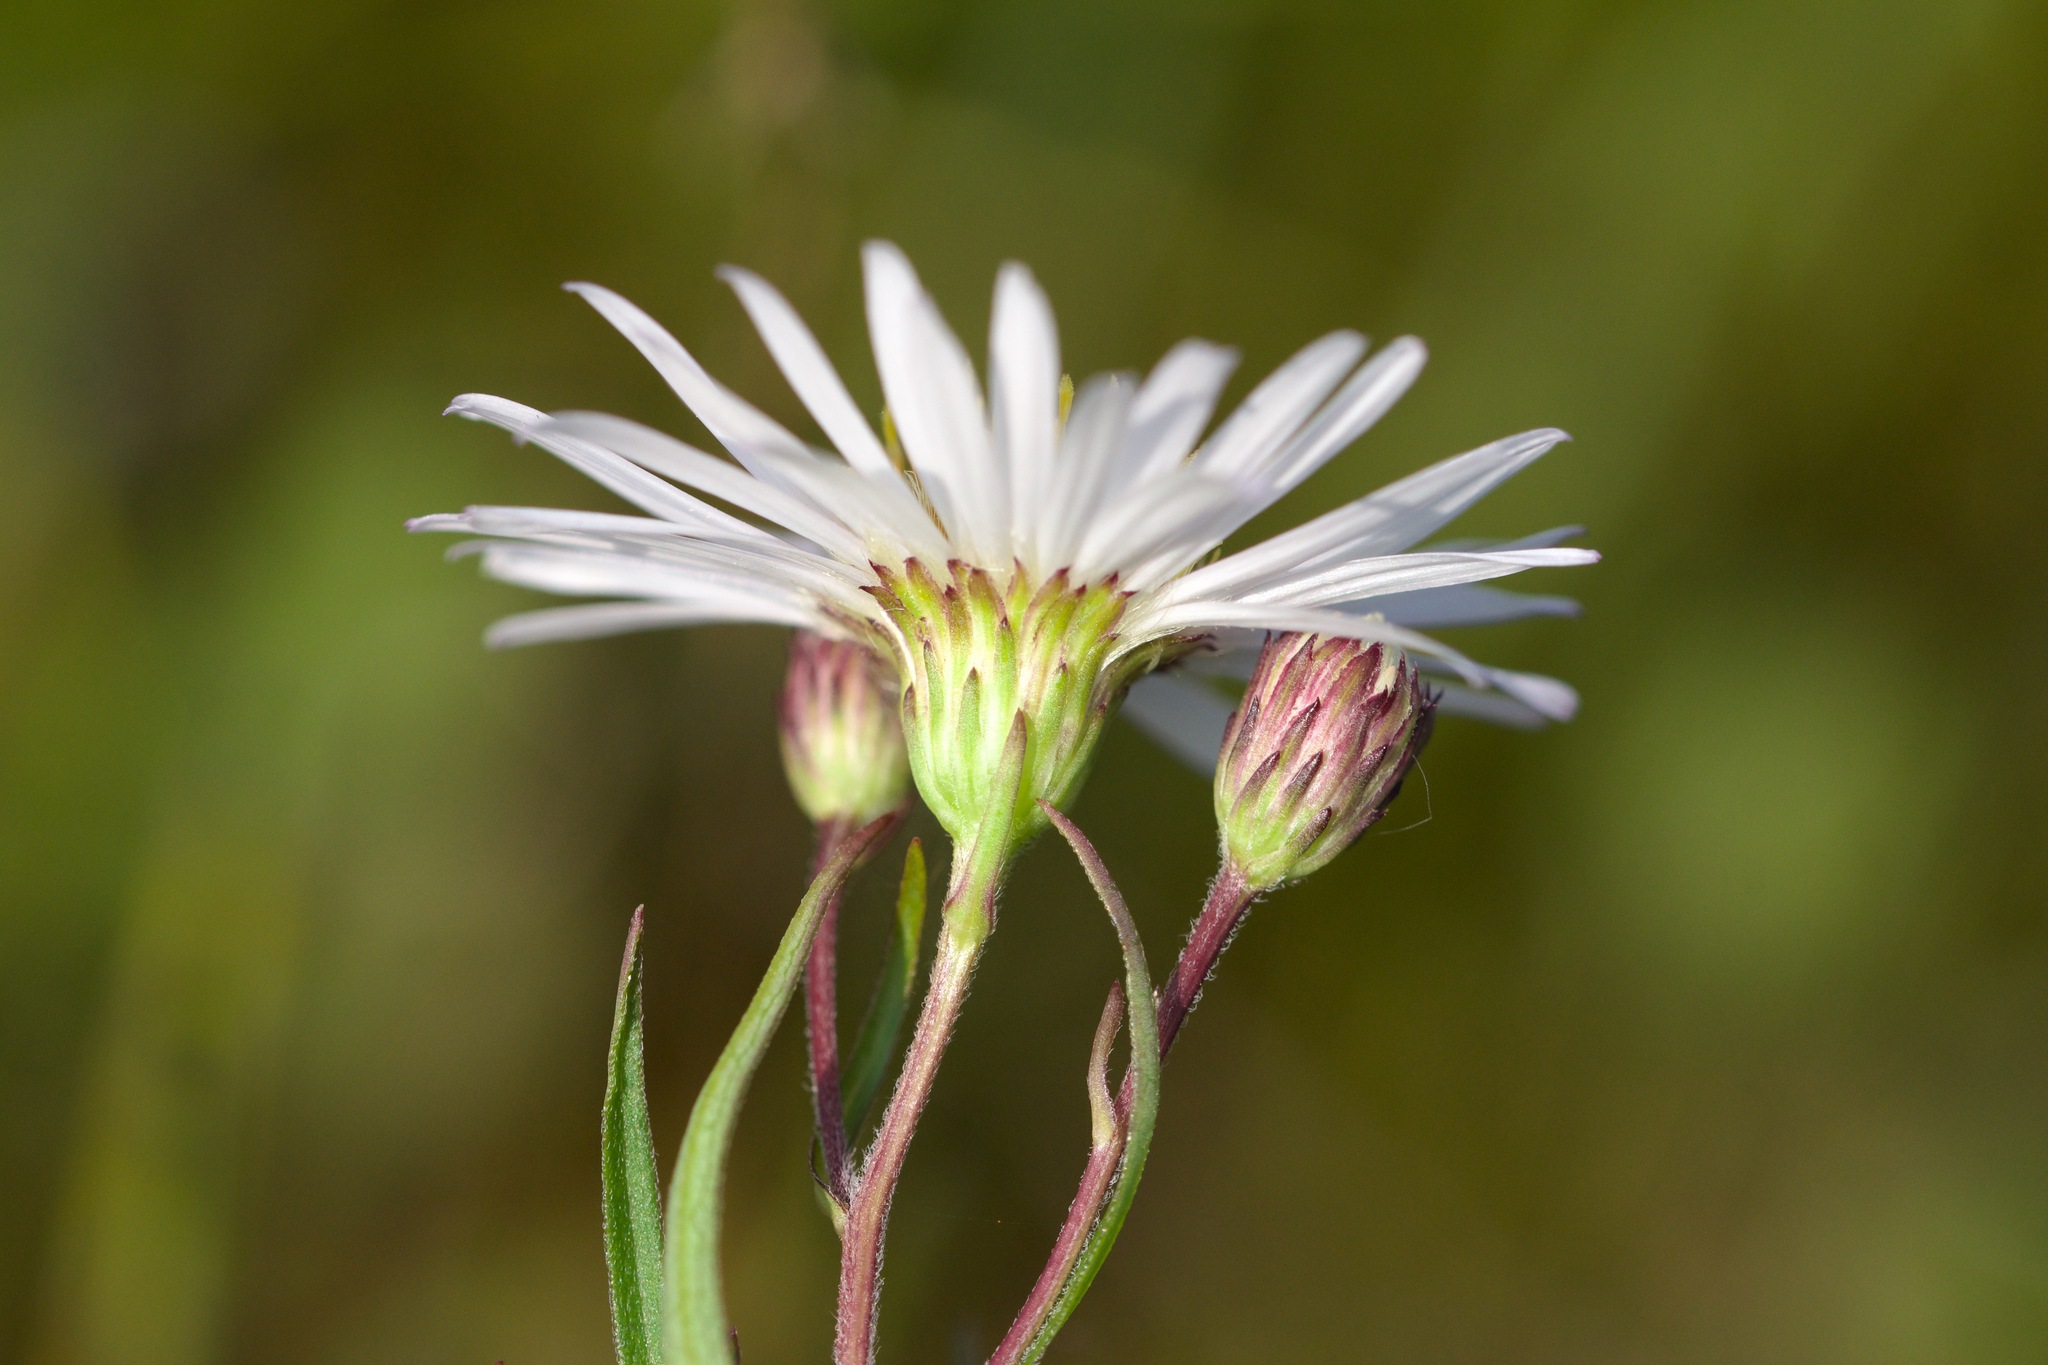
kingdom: Plantae
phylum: Tracheophyta
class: Magnoliopsida
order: Asterales
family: Asteraceae
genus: Symphyotrichum
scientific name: Symphyotrichum boreale
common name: Northern bog aster
